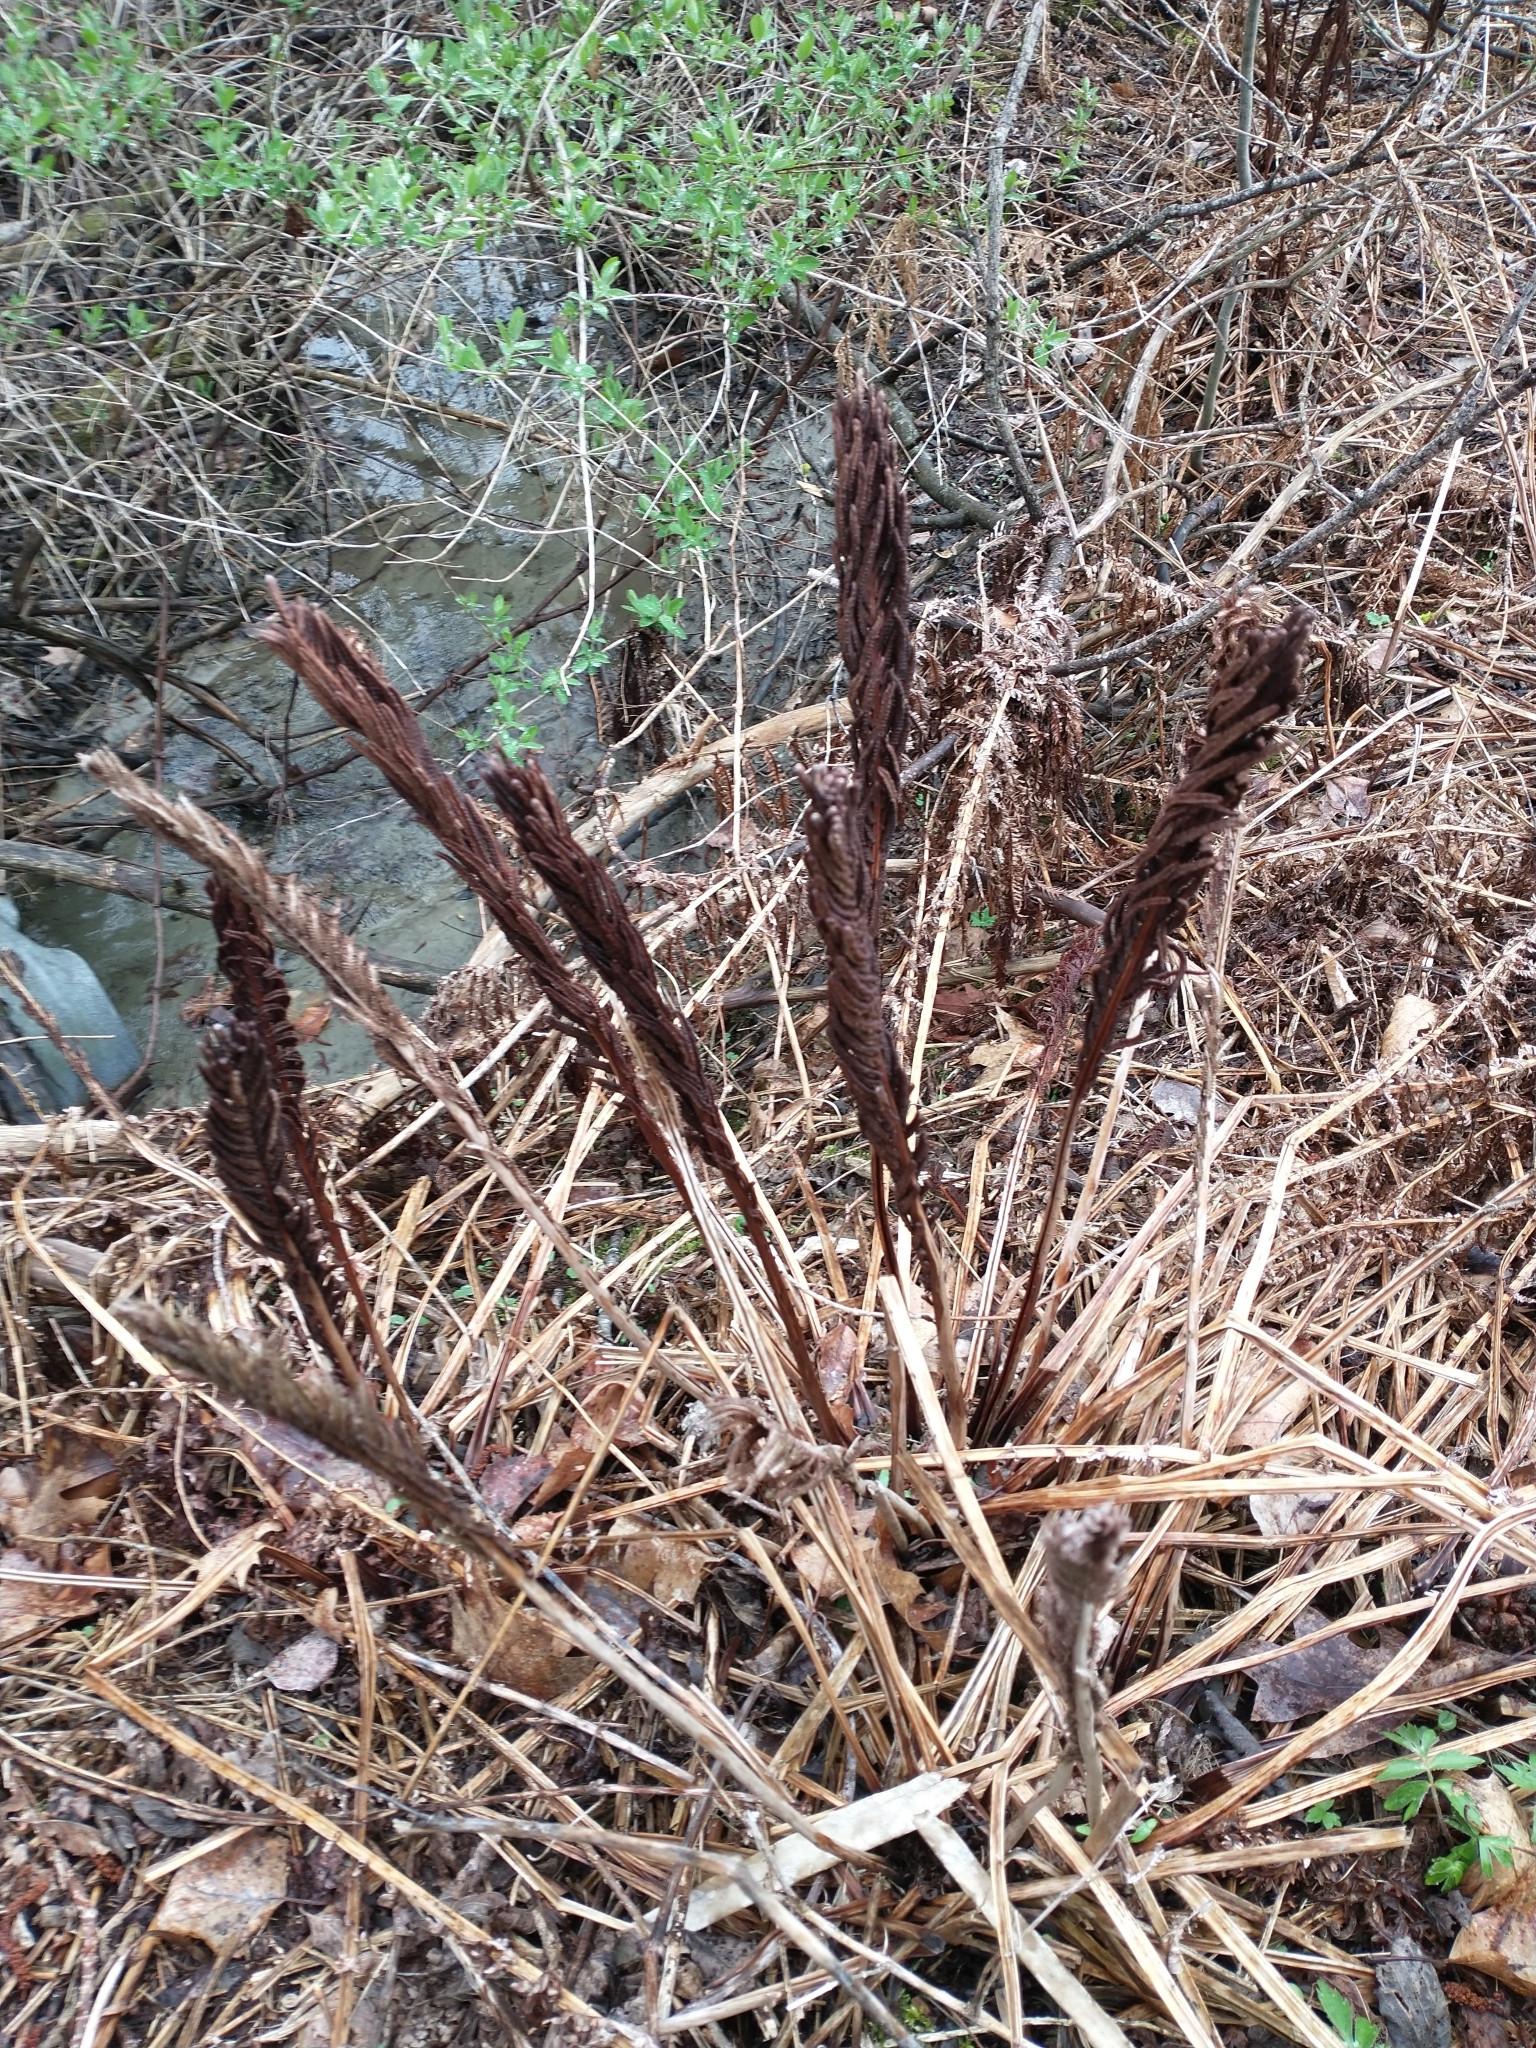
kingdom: Plantae
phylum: Tracheophyta
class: Polypodiopsida
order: Polypodiales
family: Onocleaceae
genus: Matteuccia
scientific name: Matteuccia struthiopteris
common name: Ostrich fern
